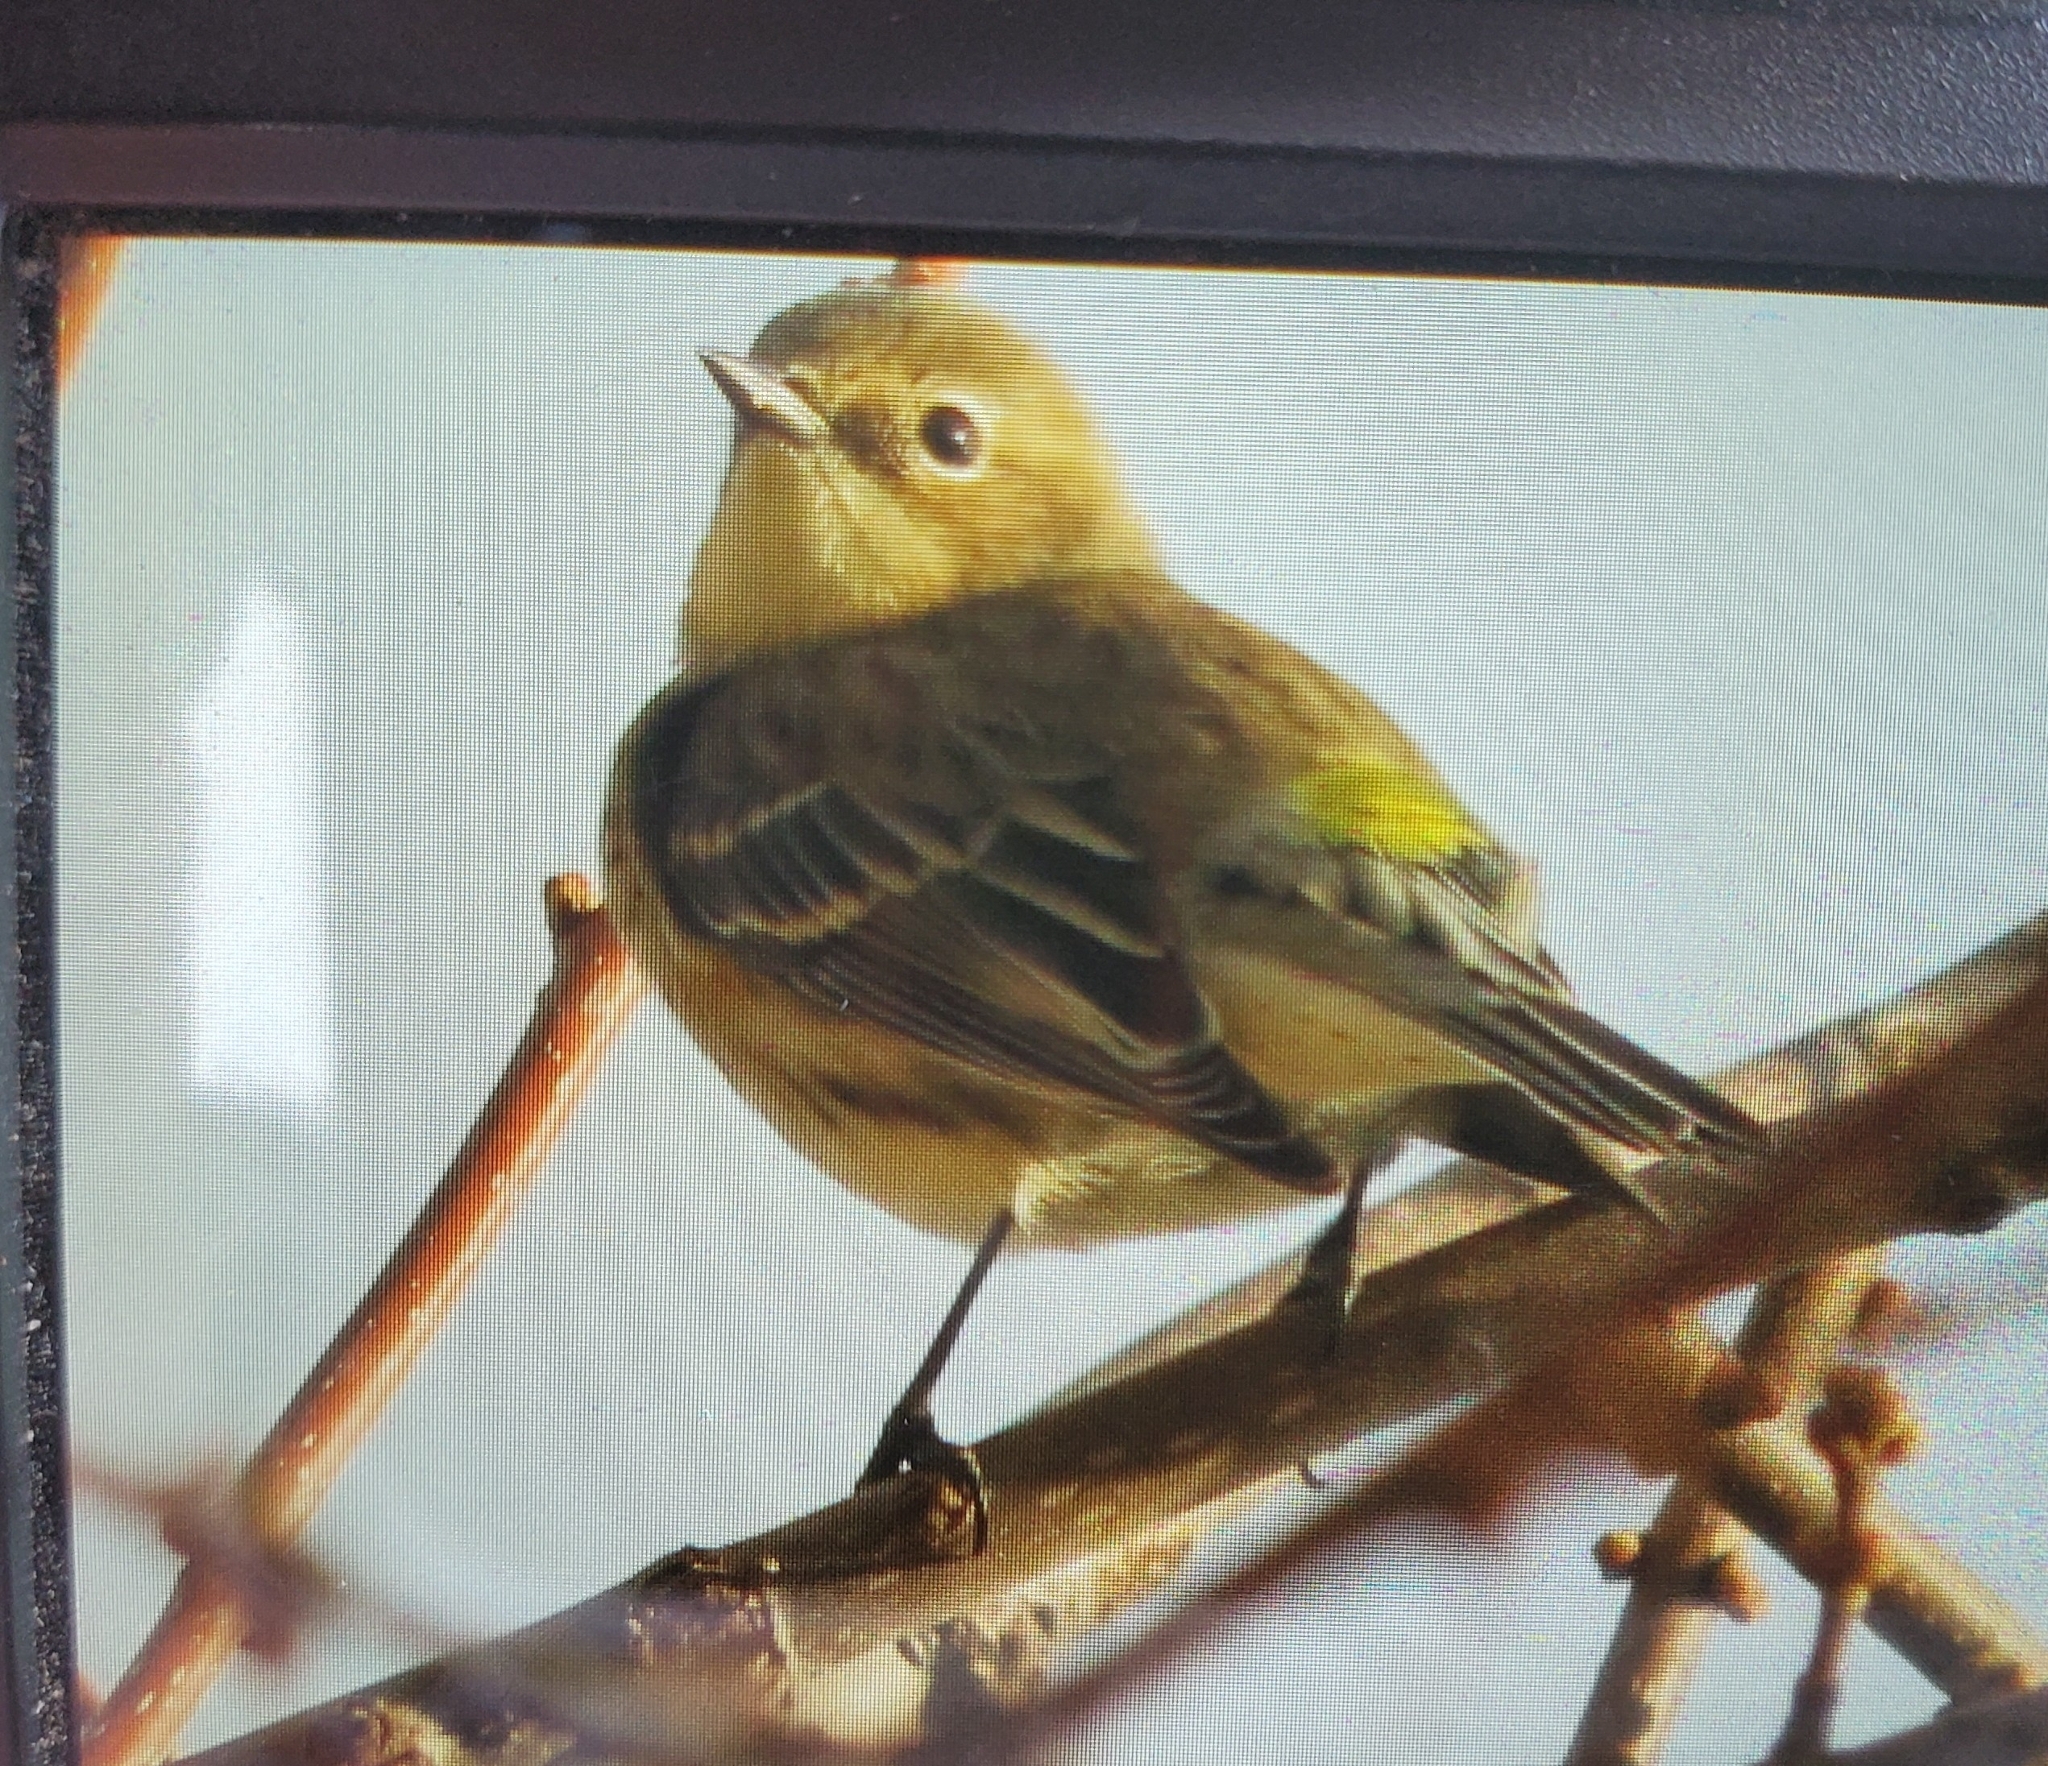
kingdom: Animalia
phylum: Chordata
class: Aves
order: Passeriformes
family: Parulidae
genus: Setophaga
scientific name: Setophaga coronata
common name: Myrtle warbler
